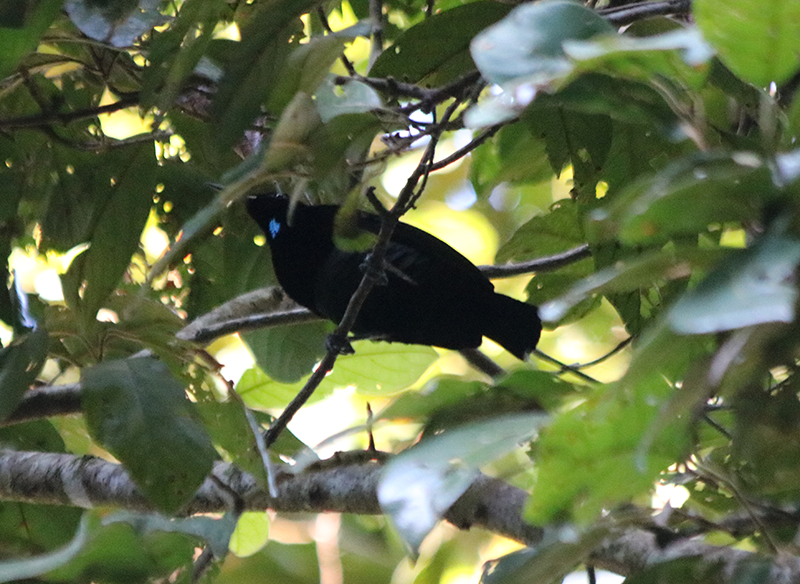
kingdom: Animalia
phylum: Chordata
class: Aves
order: Passeriformes
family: Paradisaeidae
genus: Ptiloris
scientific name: Ptiloris victoriae
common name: Victoria's riflebird
